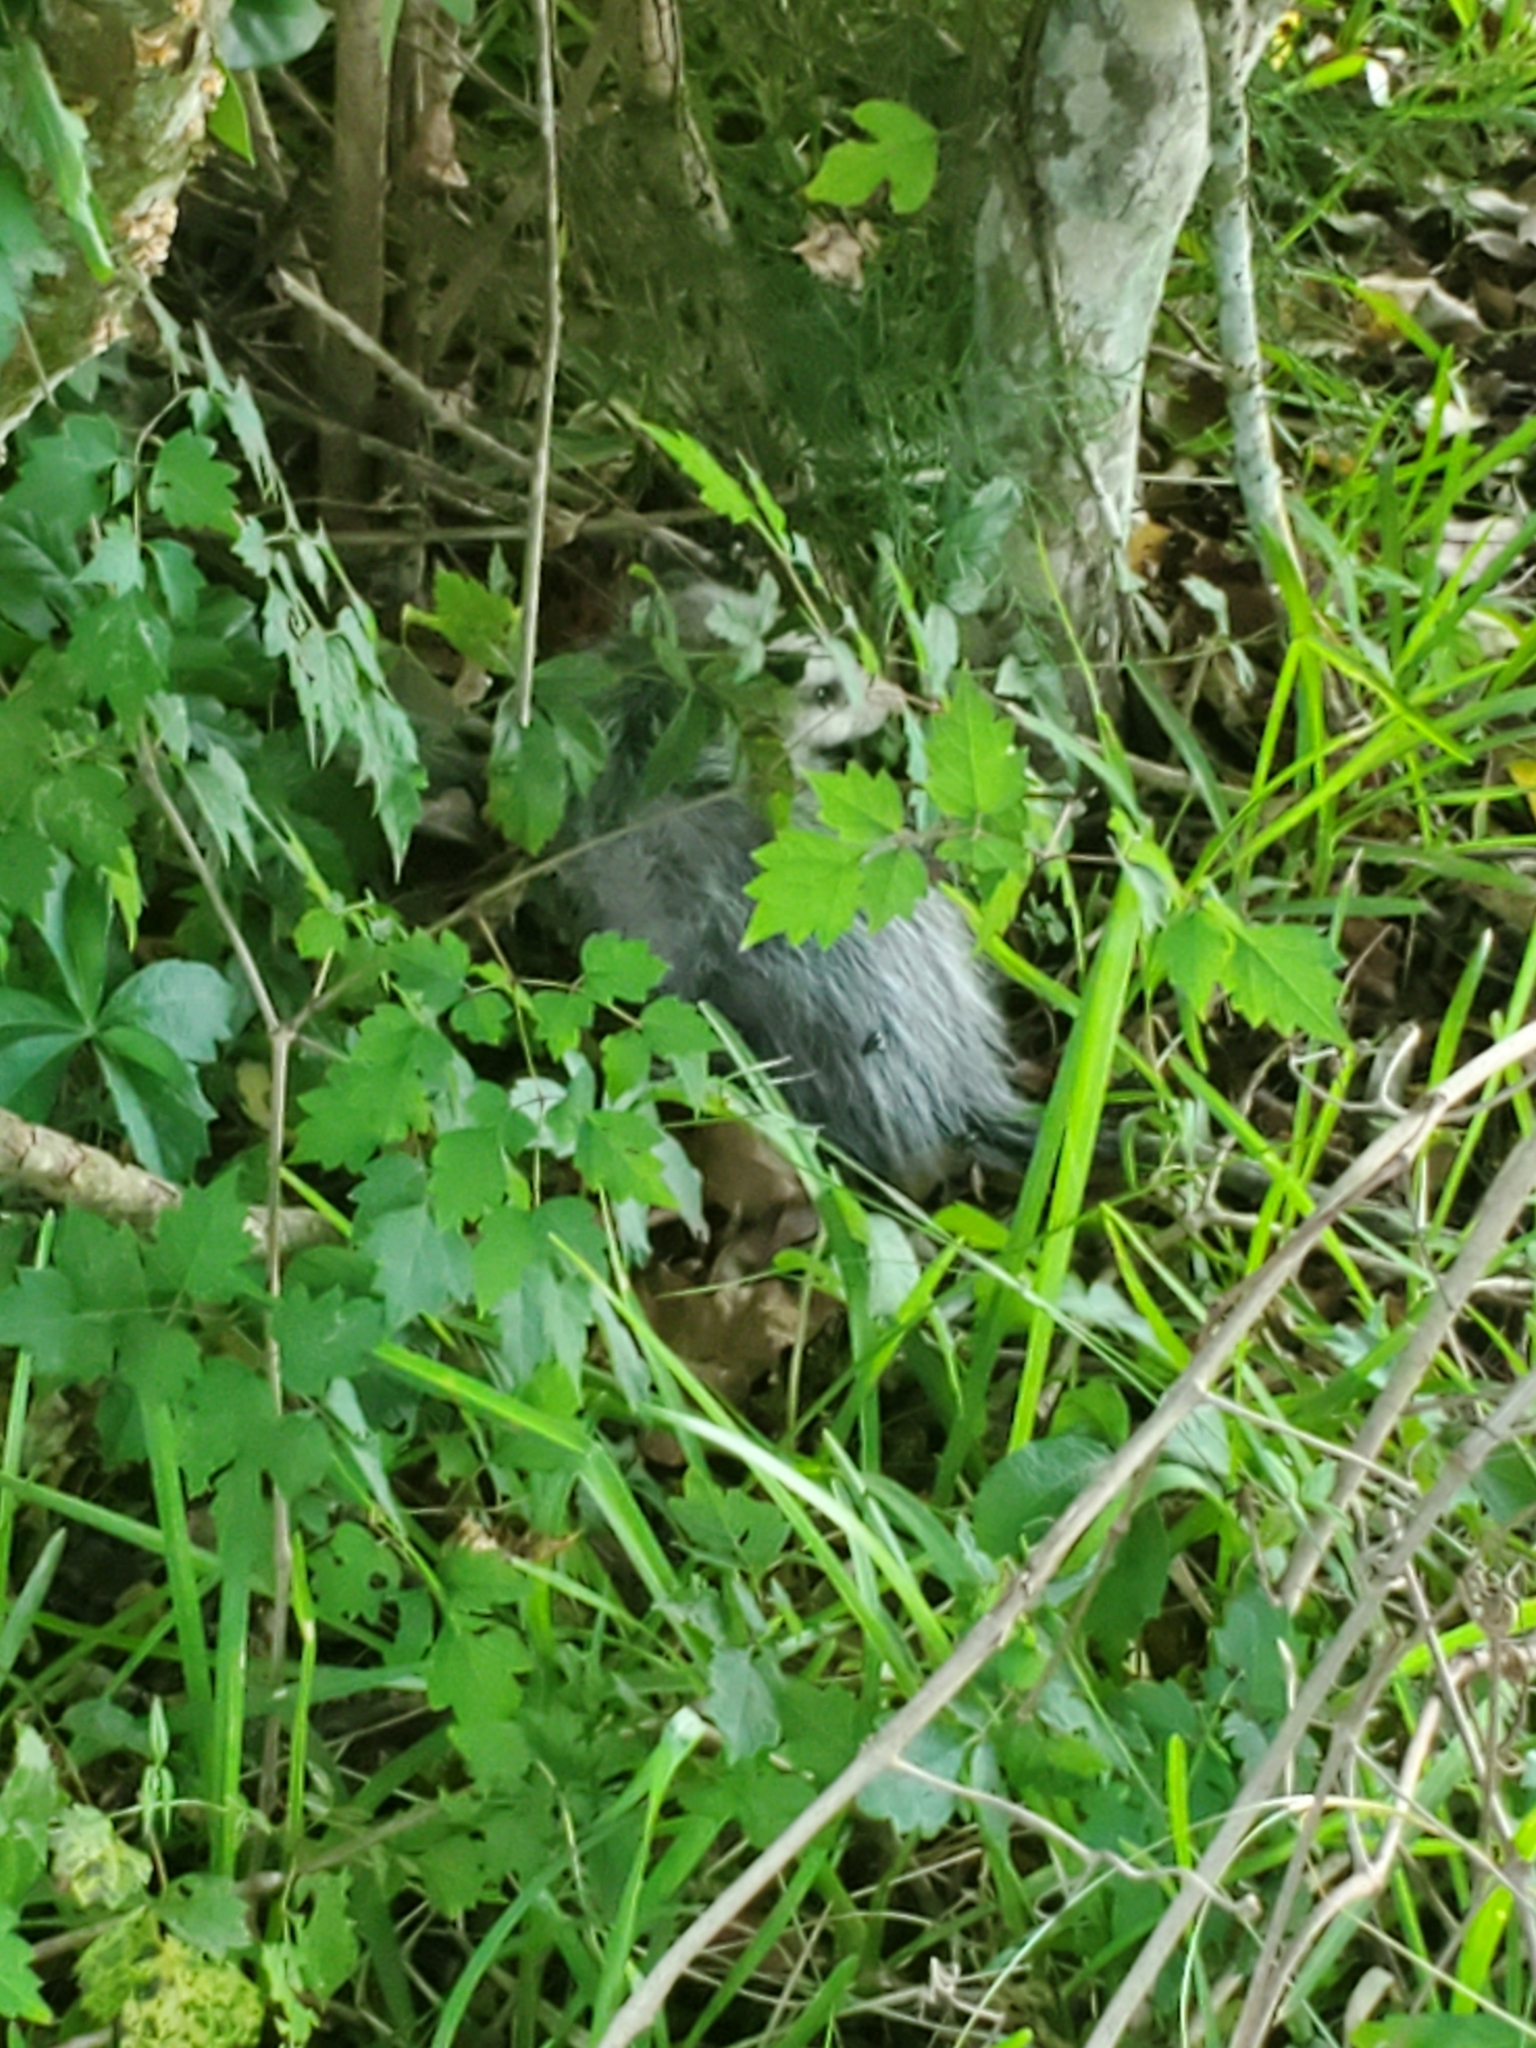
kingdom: Animalia
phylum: Chordata
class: Mammalia
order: Didelphimorphia
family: Didelphidae
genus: Didelphis
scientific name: Didelphis virginiana
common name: Virginia opossum
